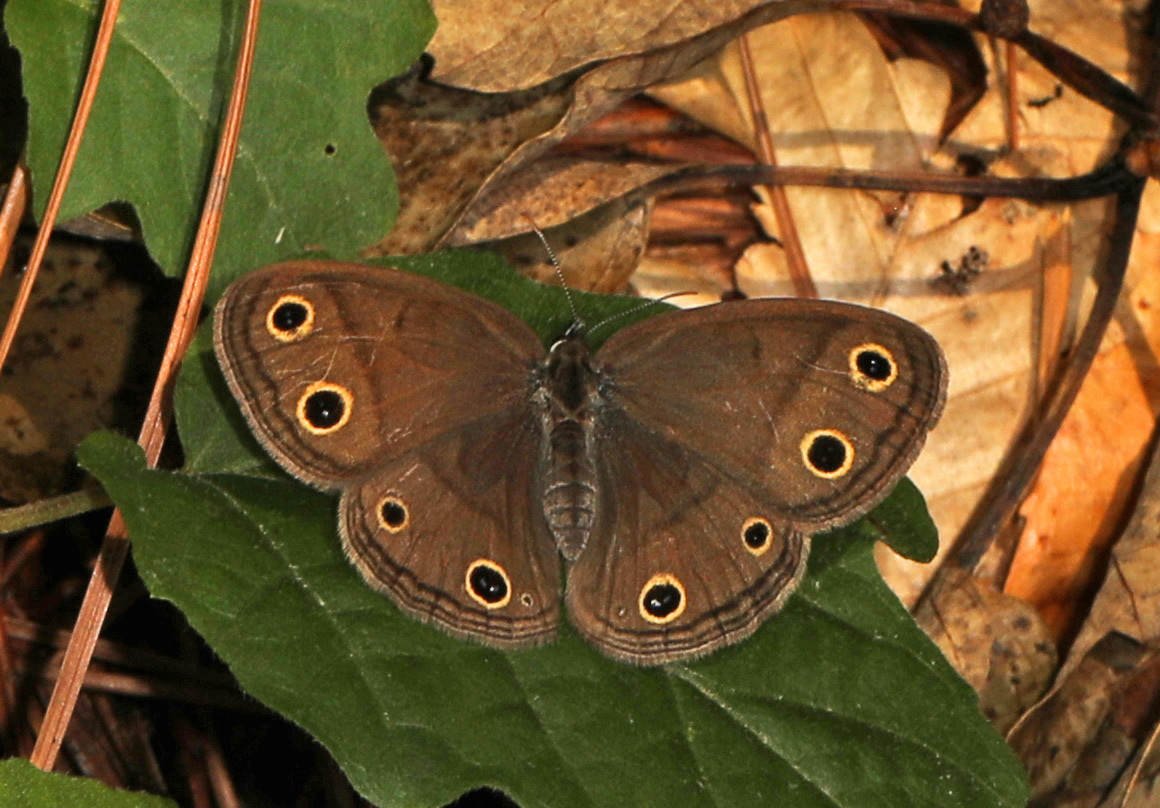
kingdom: Animalia
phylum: Arthropoda
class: Insecta
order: Lepidoptera
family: Nymphalidae
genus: Euptychia
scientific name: Euptychia cymela
